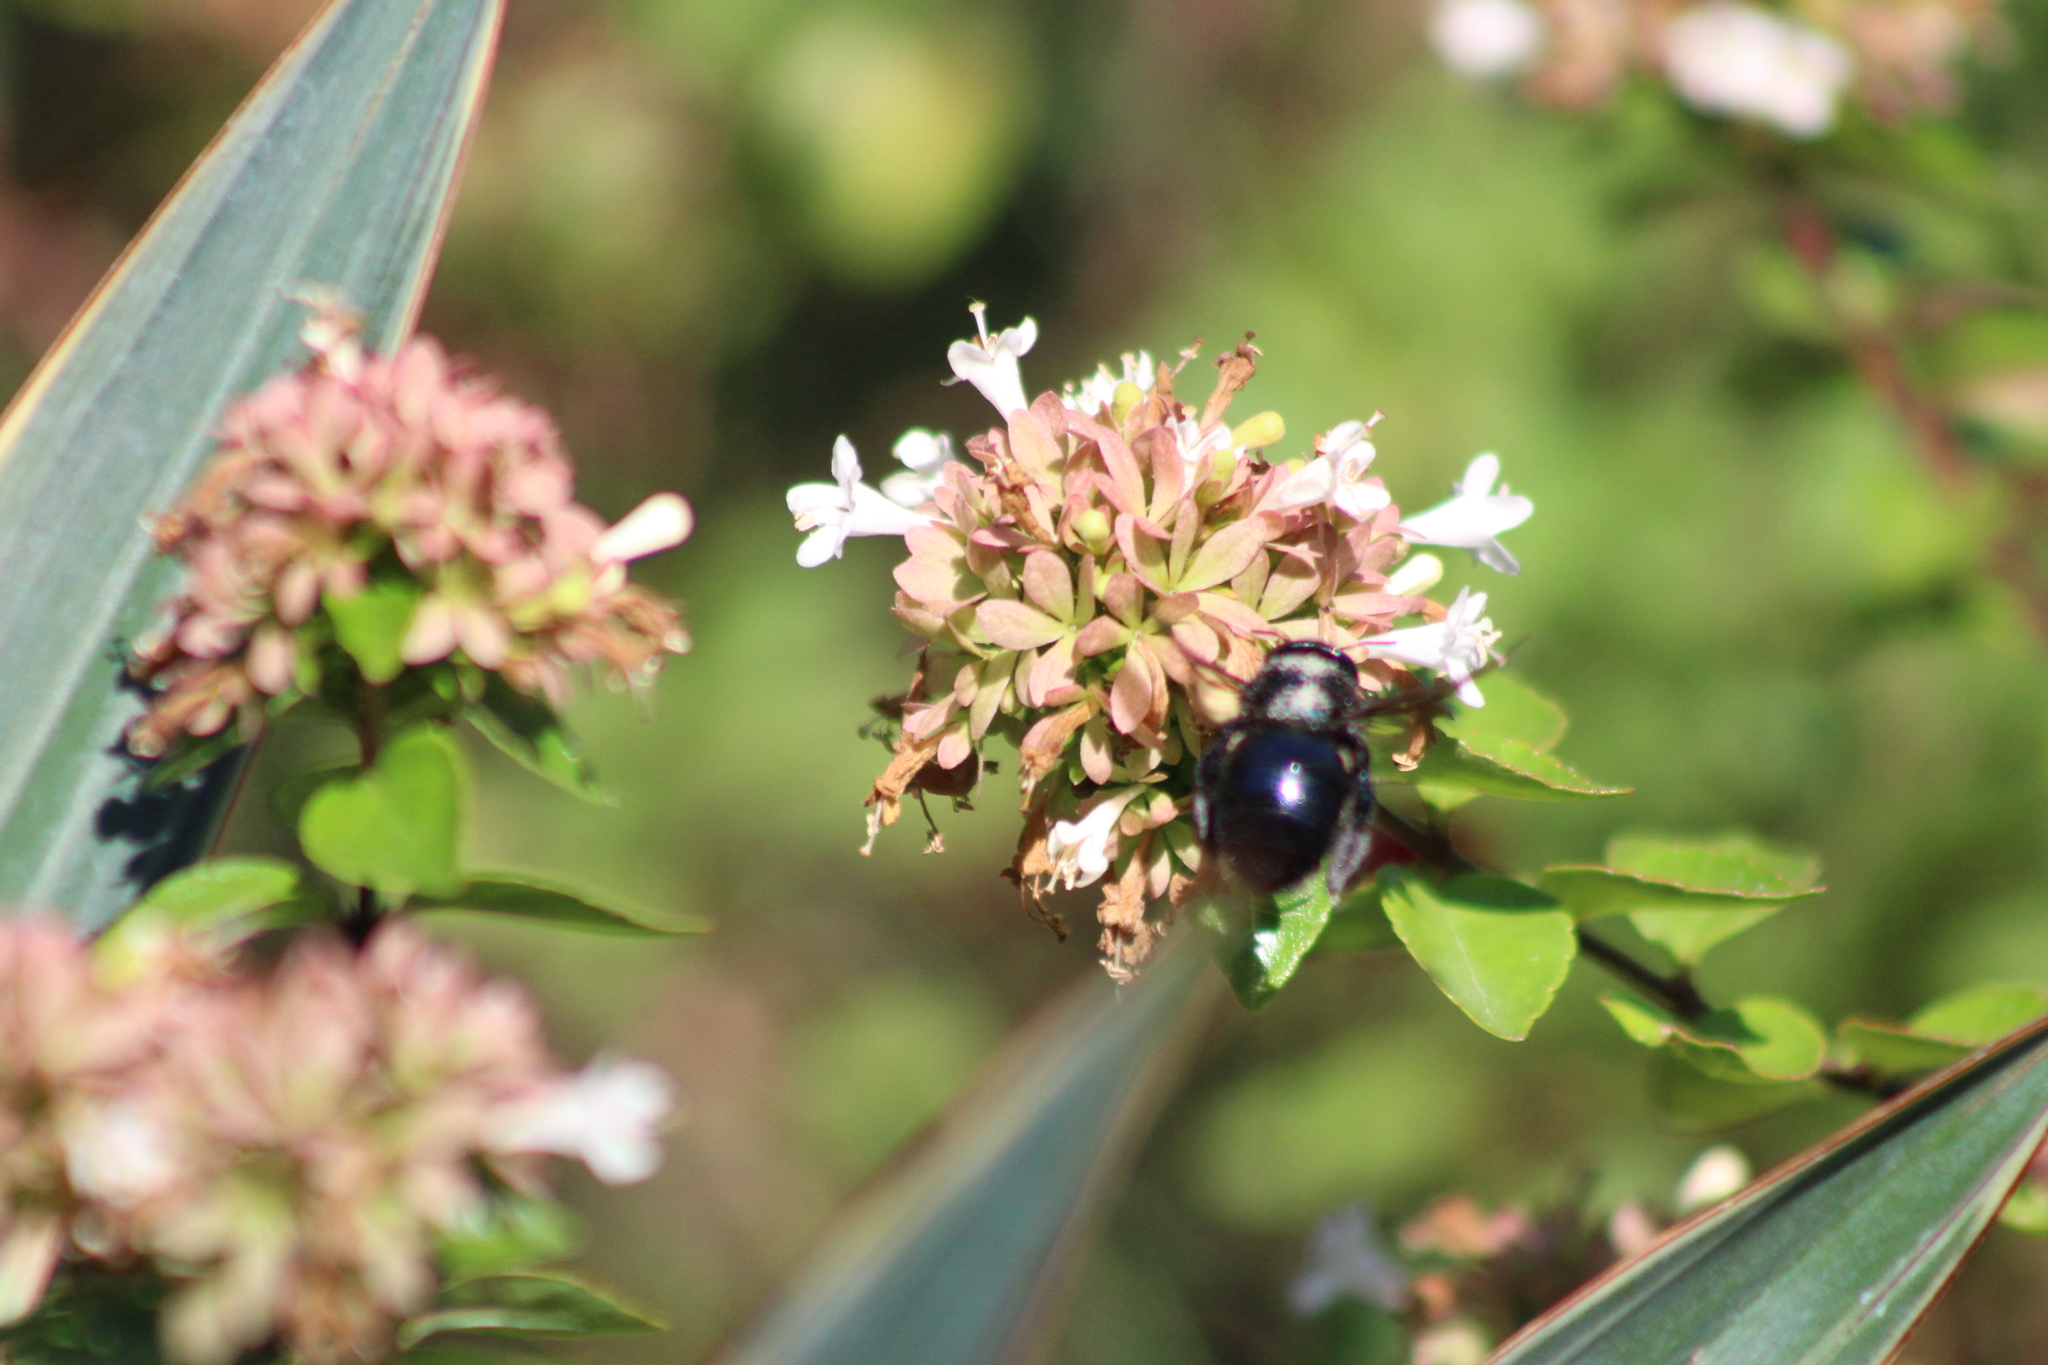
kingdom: Animalia
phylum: Arthropoda
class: Insecta
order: Hymenoptera
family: Apidae
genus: Xylocopa
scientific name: Xylocopa micans
